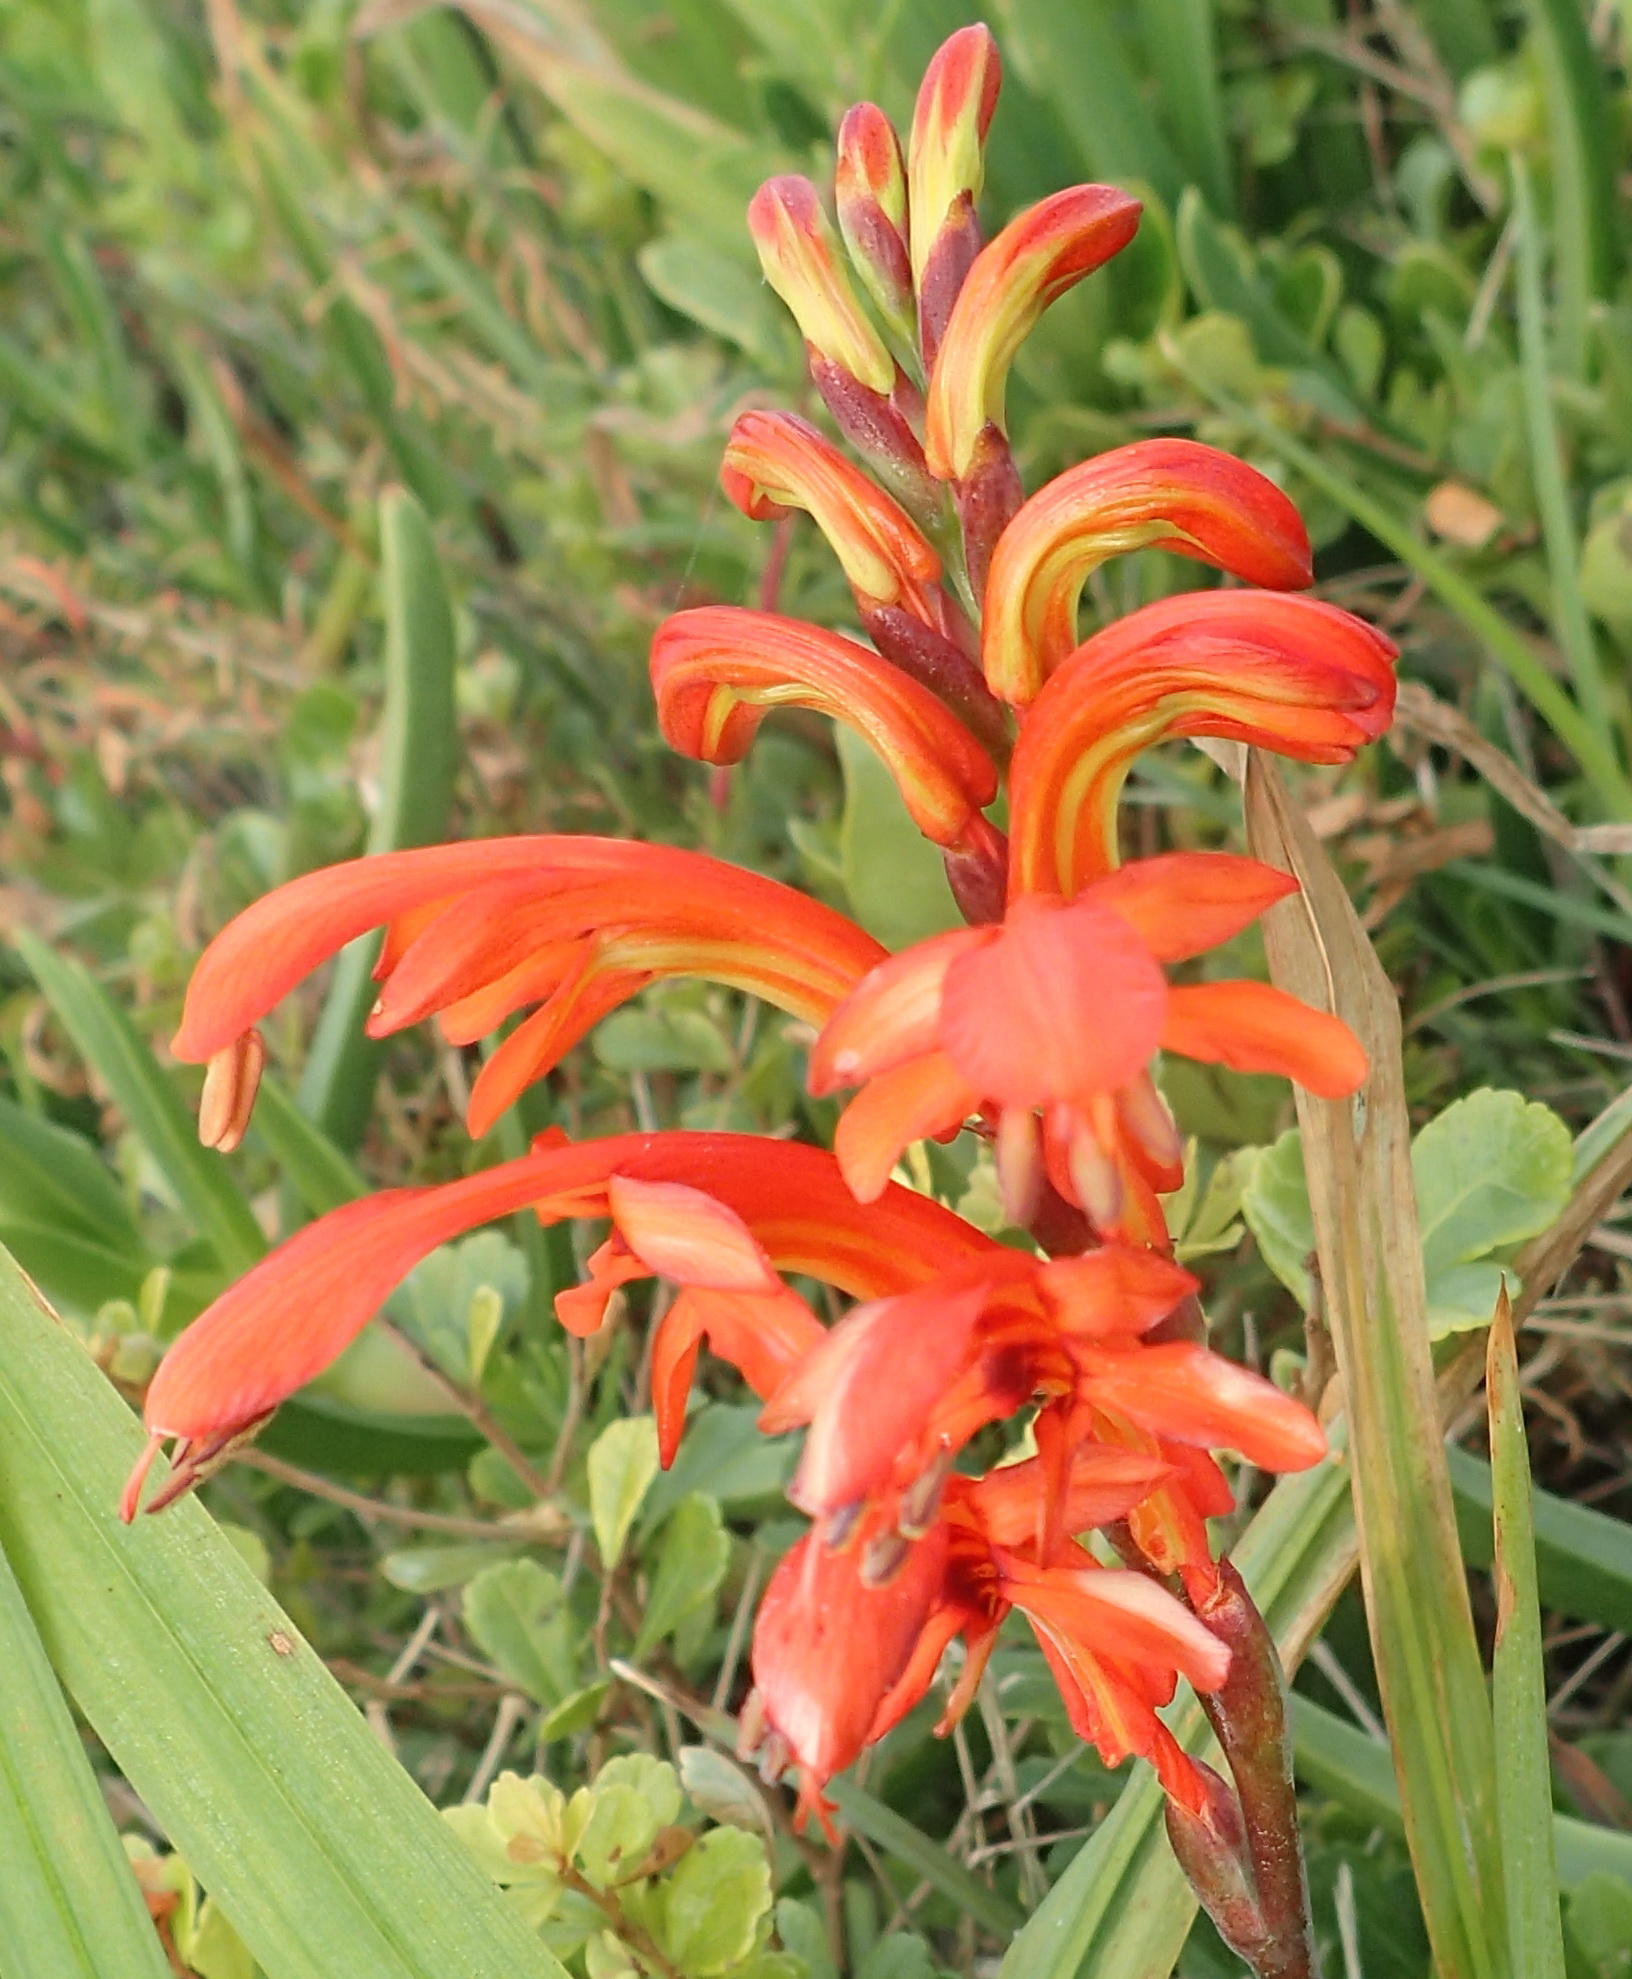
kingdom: Plantae
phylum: Tracheophyta
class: Liliopsida
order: Asparagales
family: Iridaceae
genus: Chasmanthe
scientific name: Chasmanthe aethiopica
